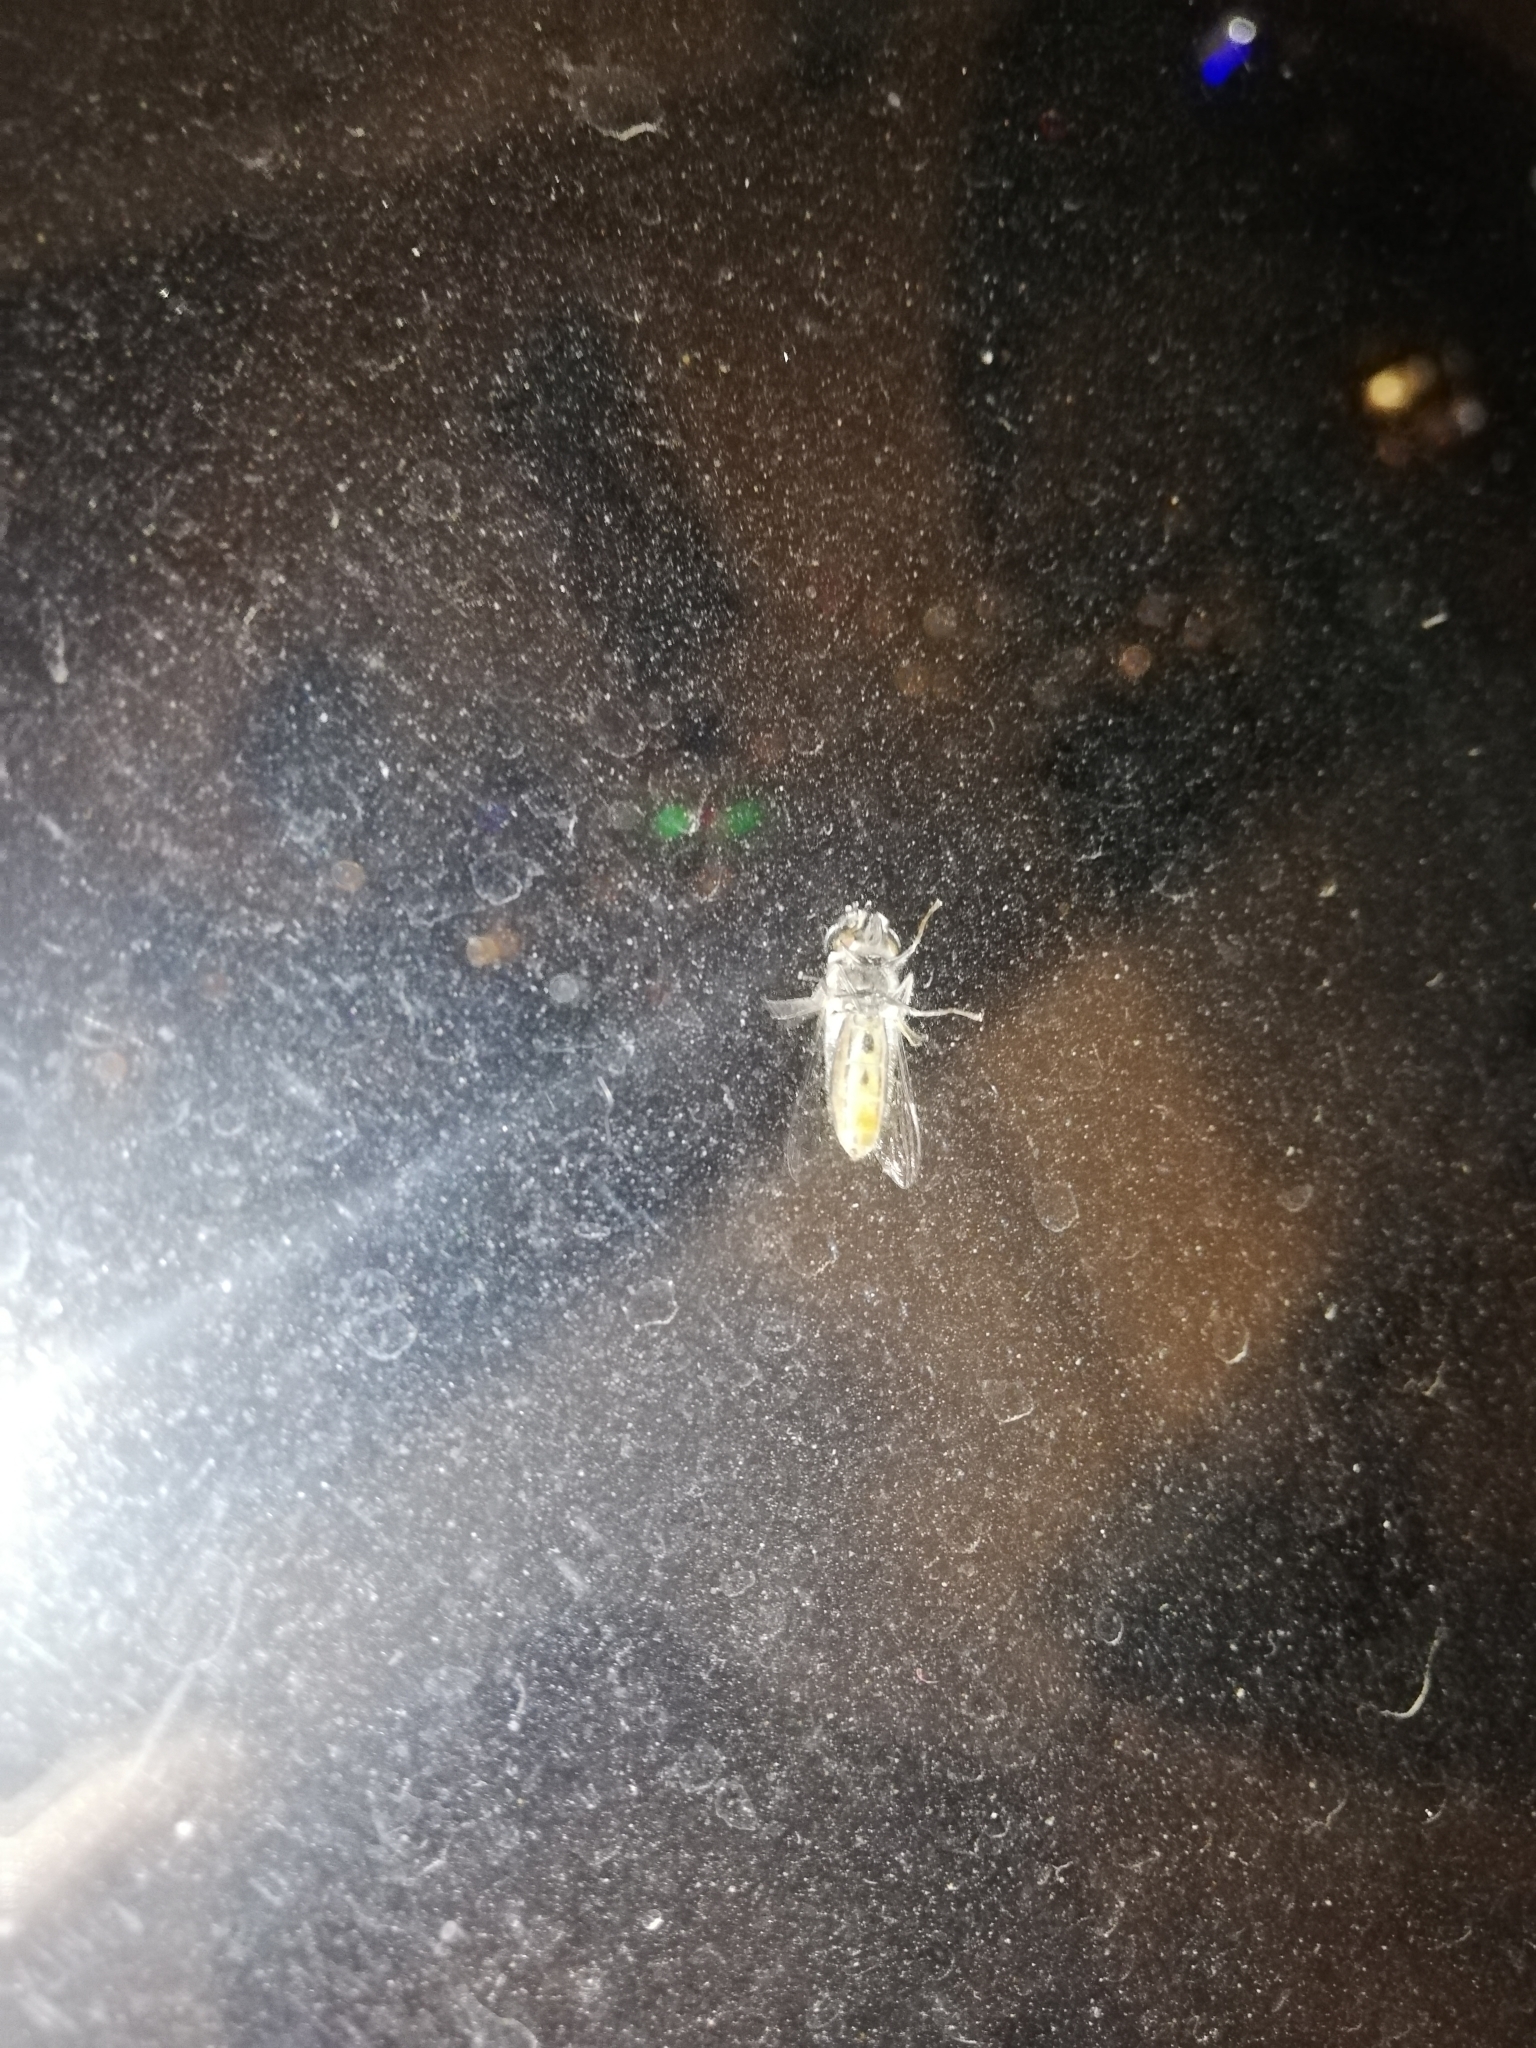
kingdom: Animalia
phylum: Arthropoda
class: Insecta
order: Diptera
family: Syrphidae
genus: Austroscaeva
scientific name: Austroscaeva melanostoma
